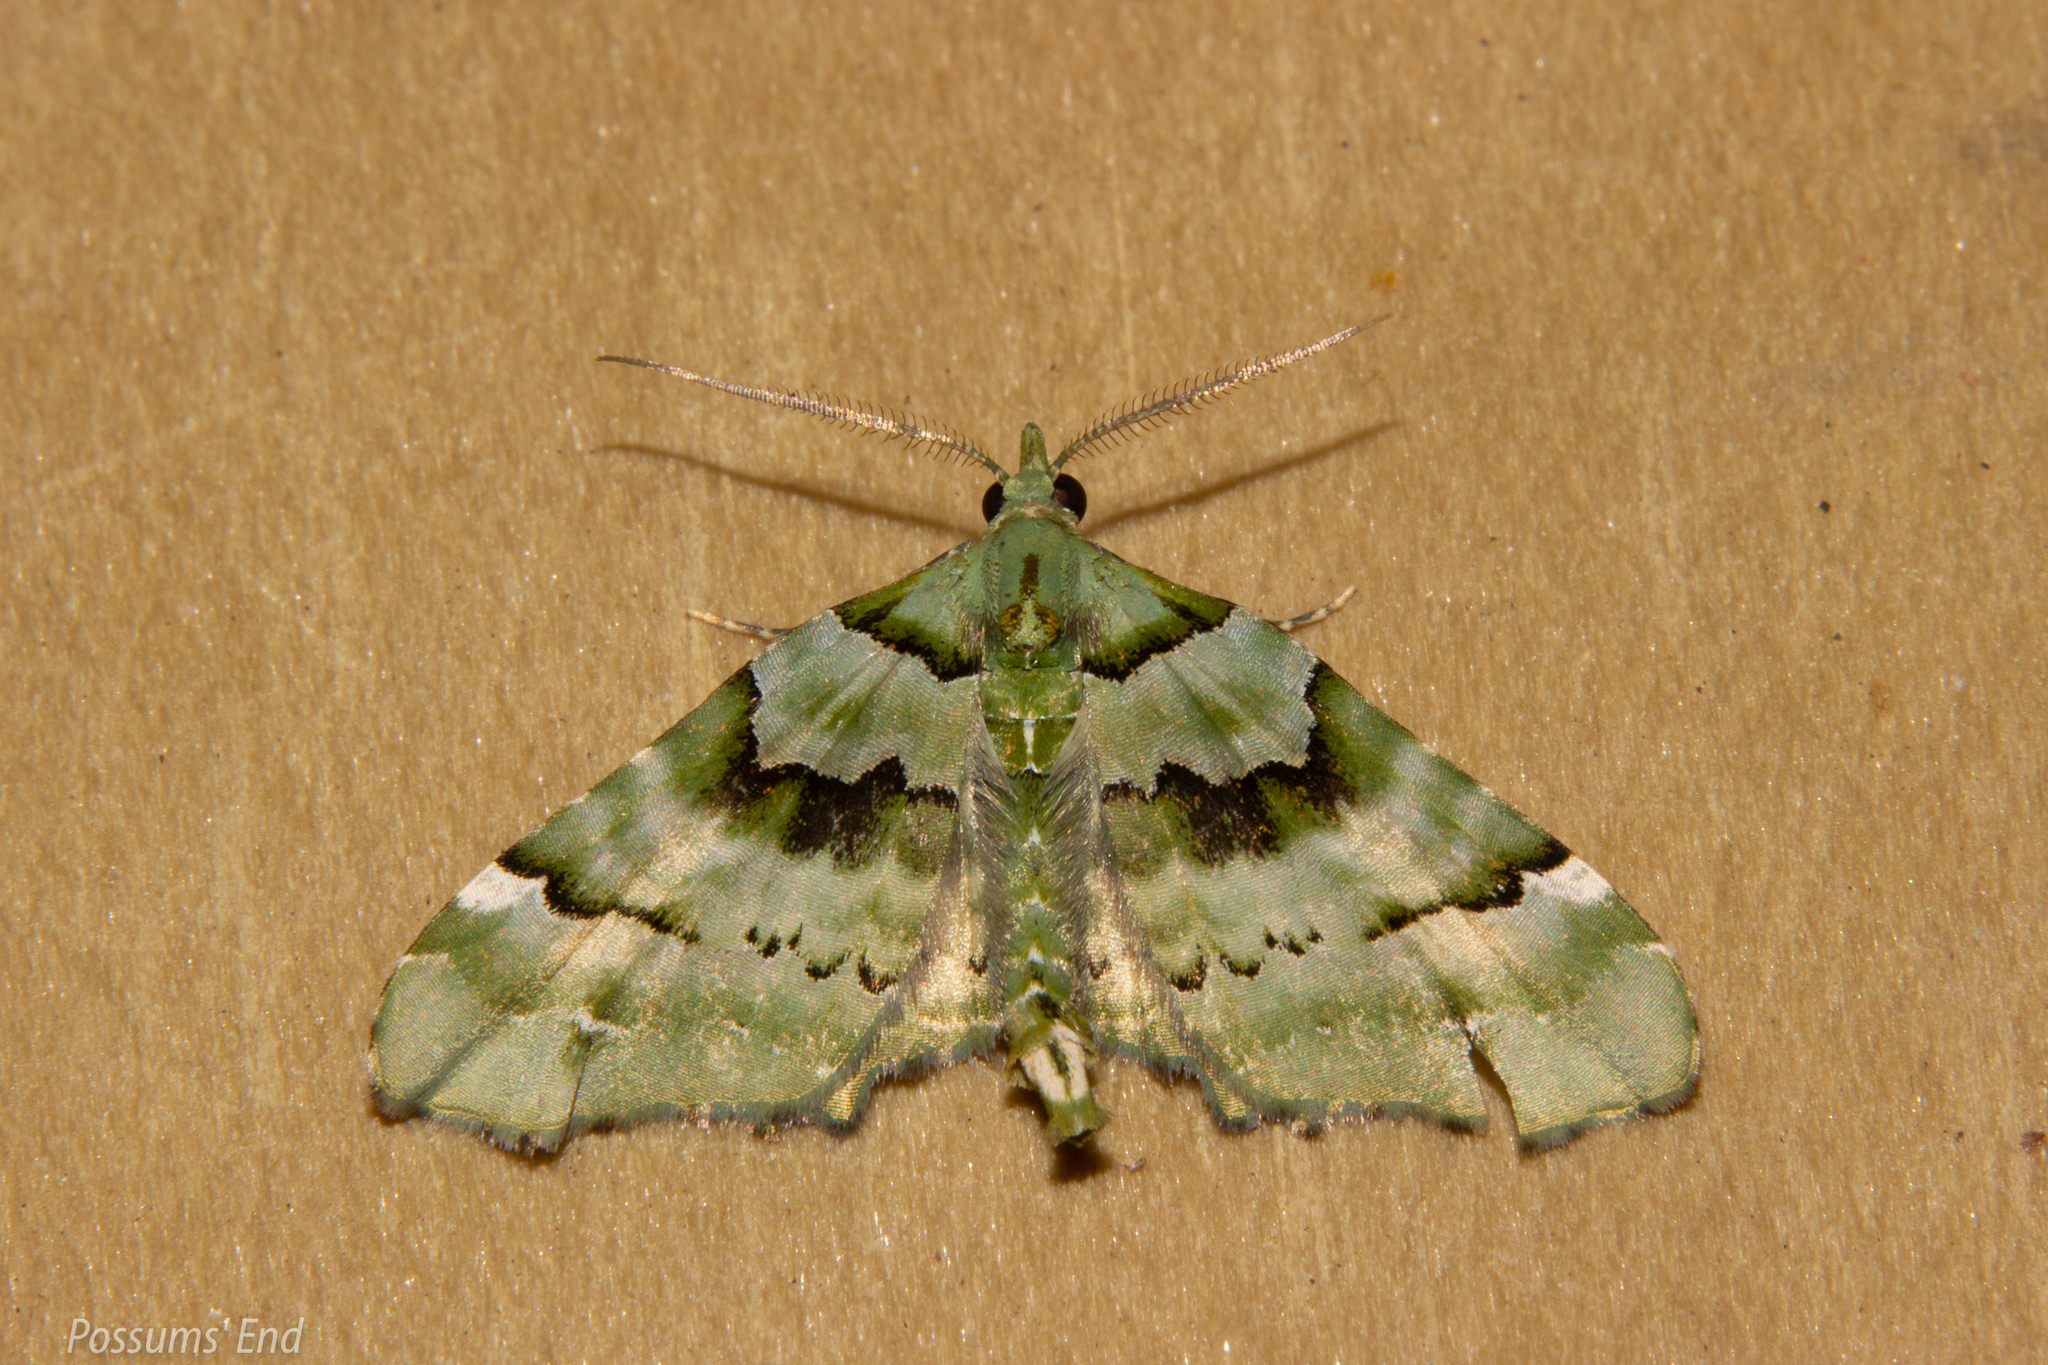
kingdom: Animalia
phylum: Arthropoda
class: Insecta
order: Lepidoptera
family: Geometridae
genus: Elvia
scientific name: Elvia glaucata
